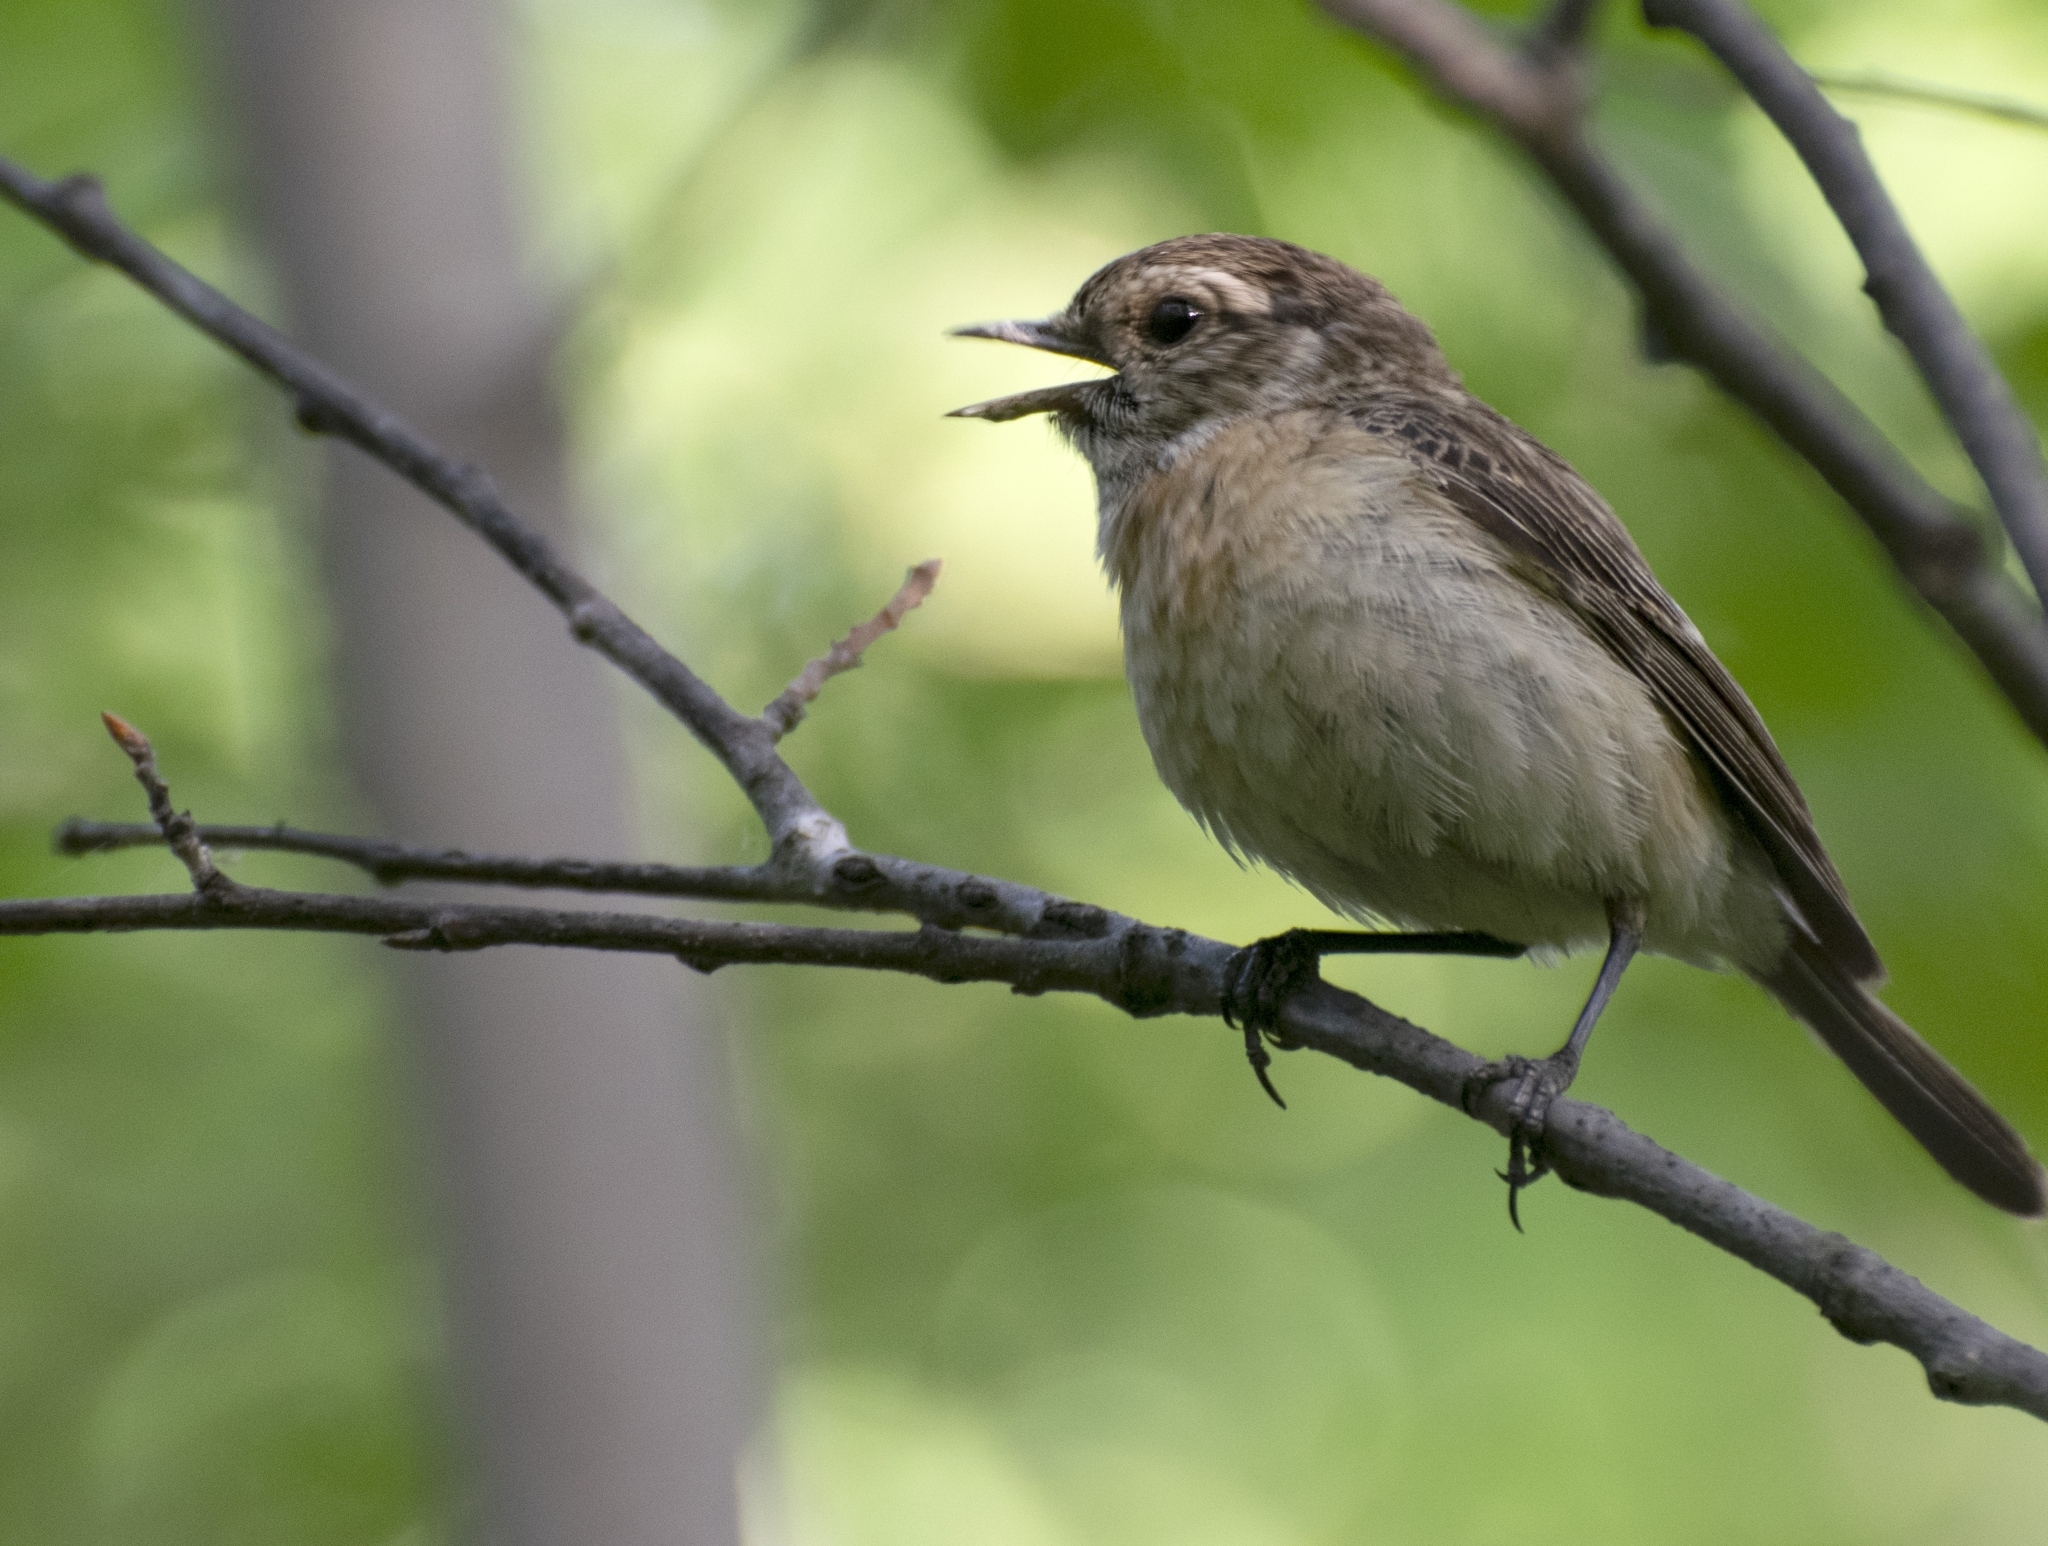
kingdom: Animalia
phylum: Chordata
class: Aves
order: Passeriformes
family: Muscicapidae
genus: Saxicola
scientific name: Saxicola maurus
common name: Siberian stonechat
